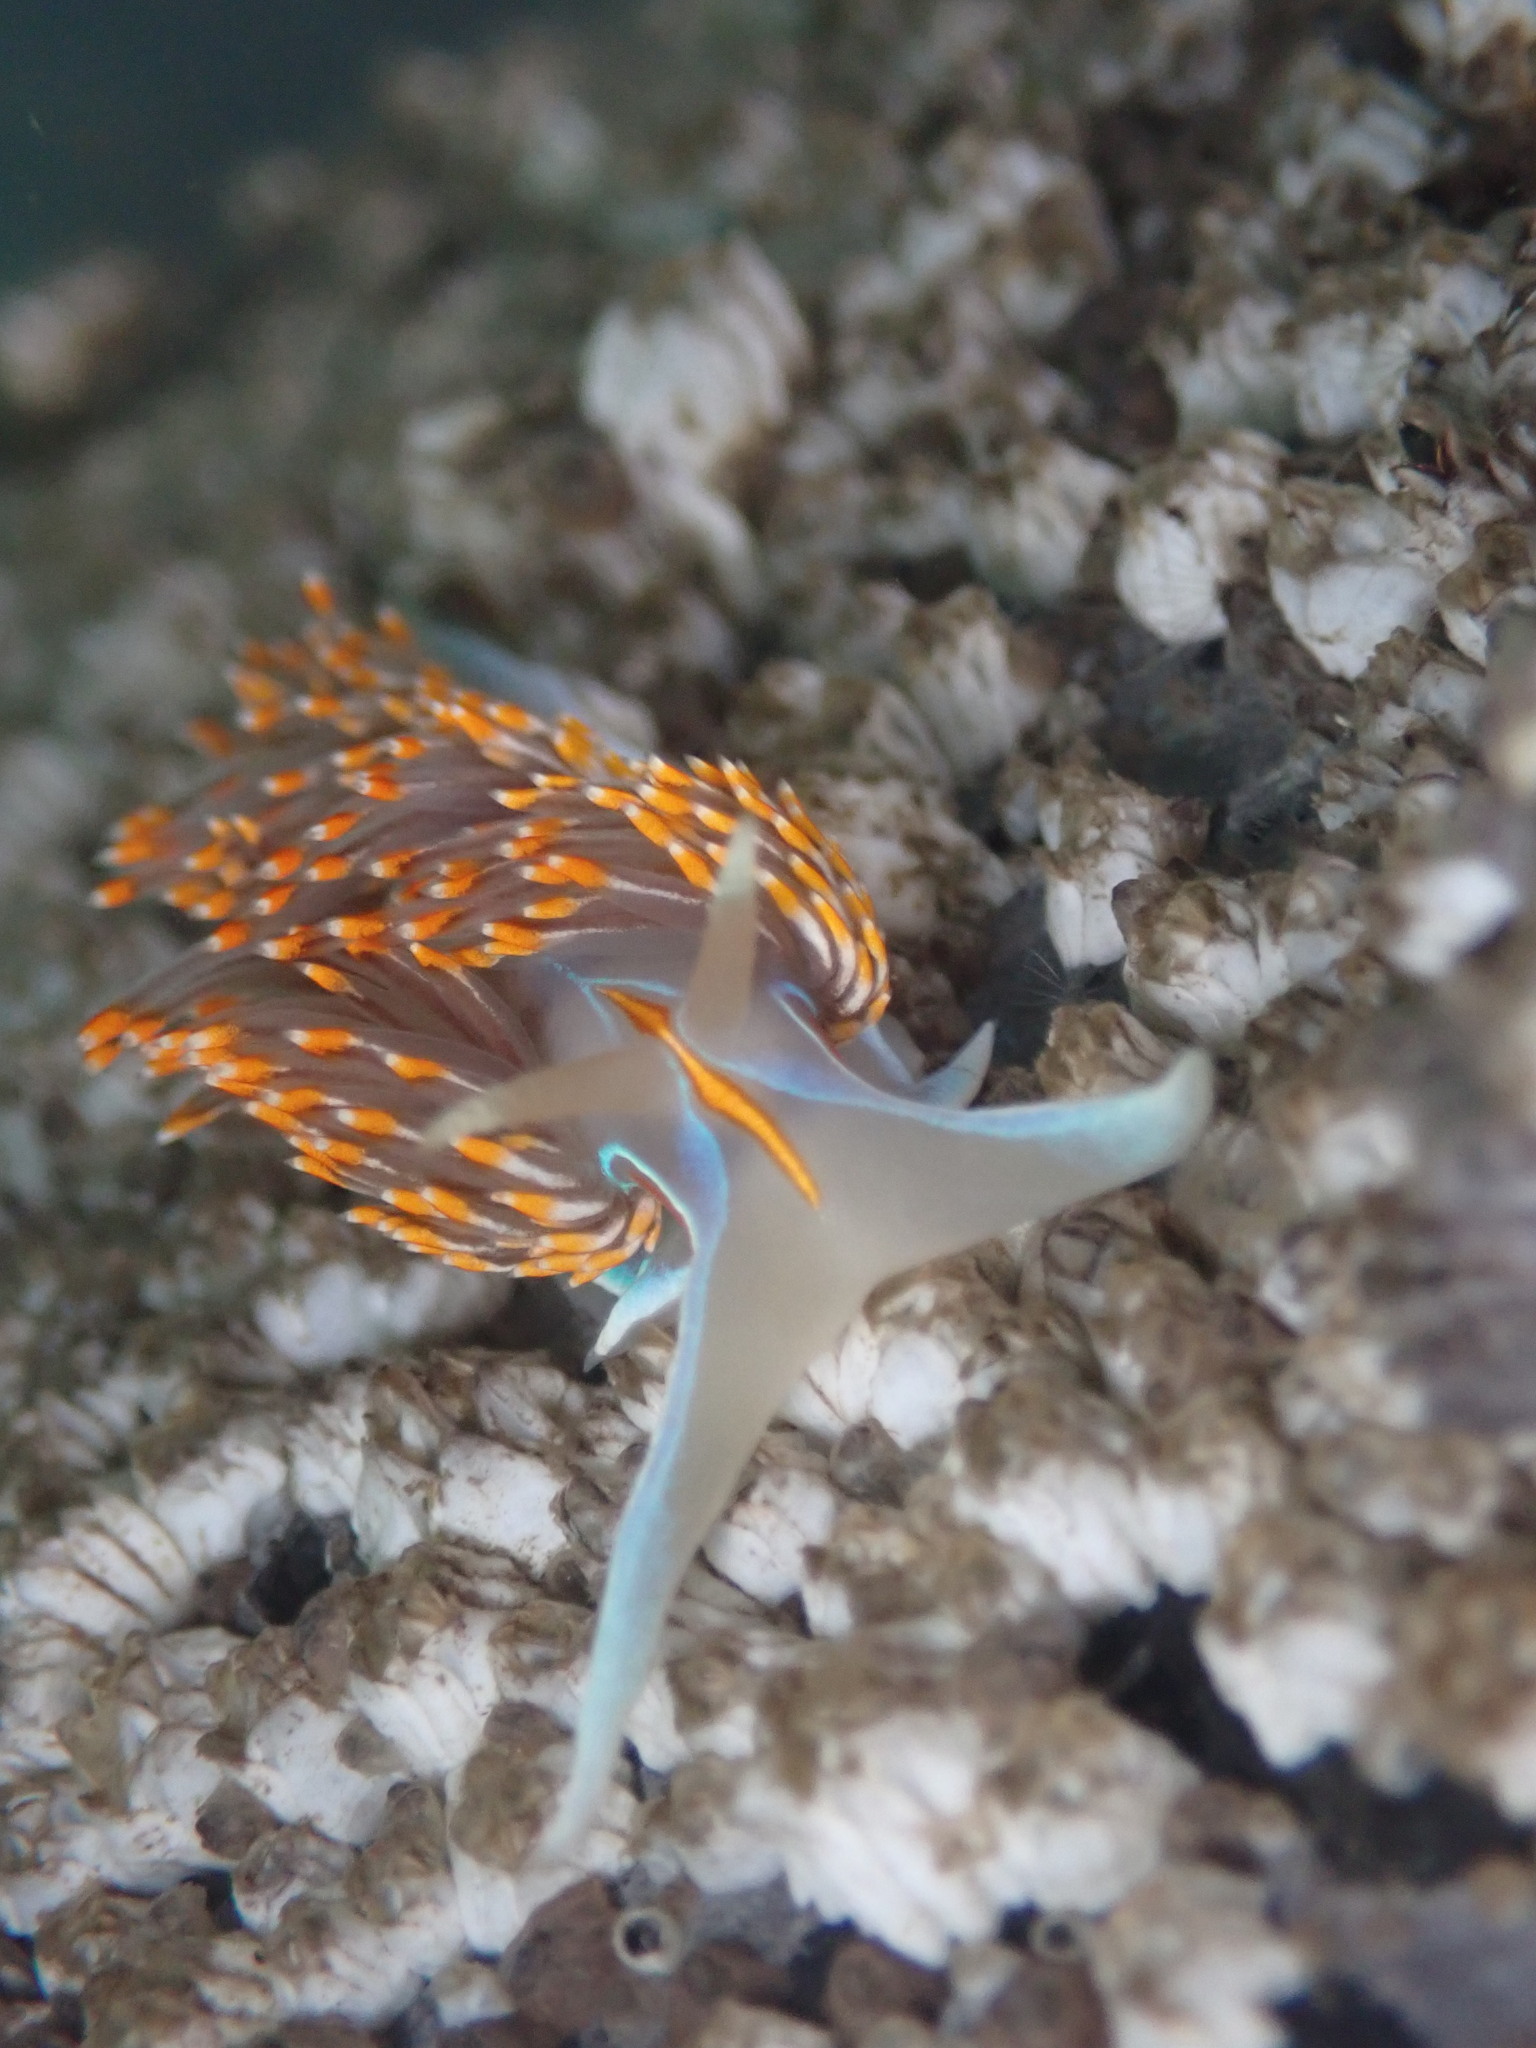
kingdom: Animalia
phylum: Mollusca
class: Gastropoda
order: Nudibranchia
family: Myrrhinidae
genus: Hermissenda
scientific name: Hermissenda opalescens
